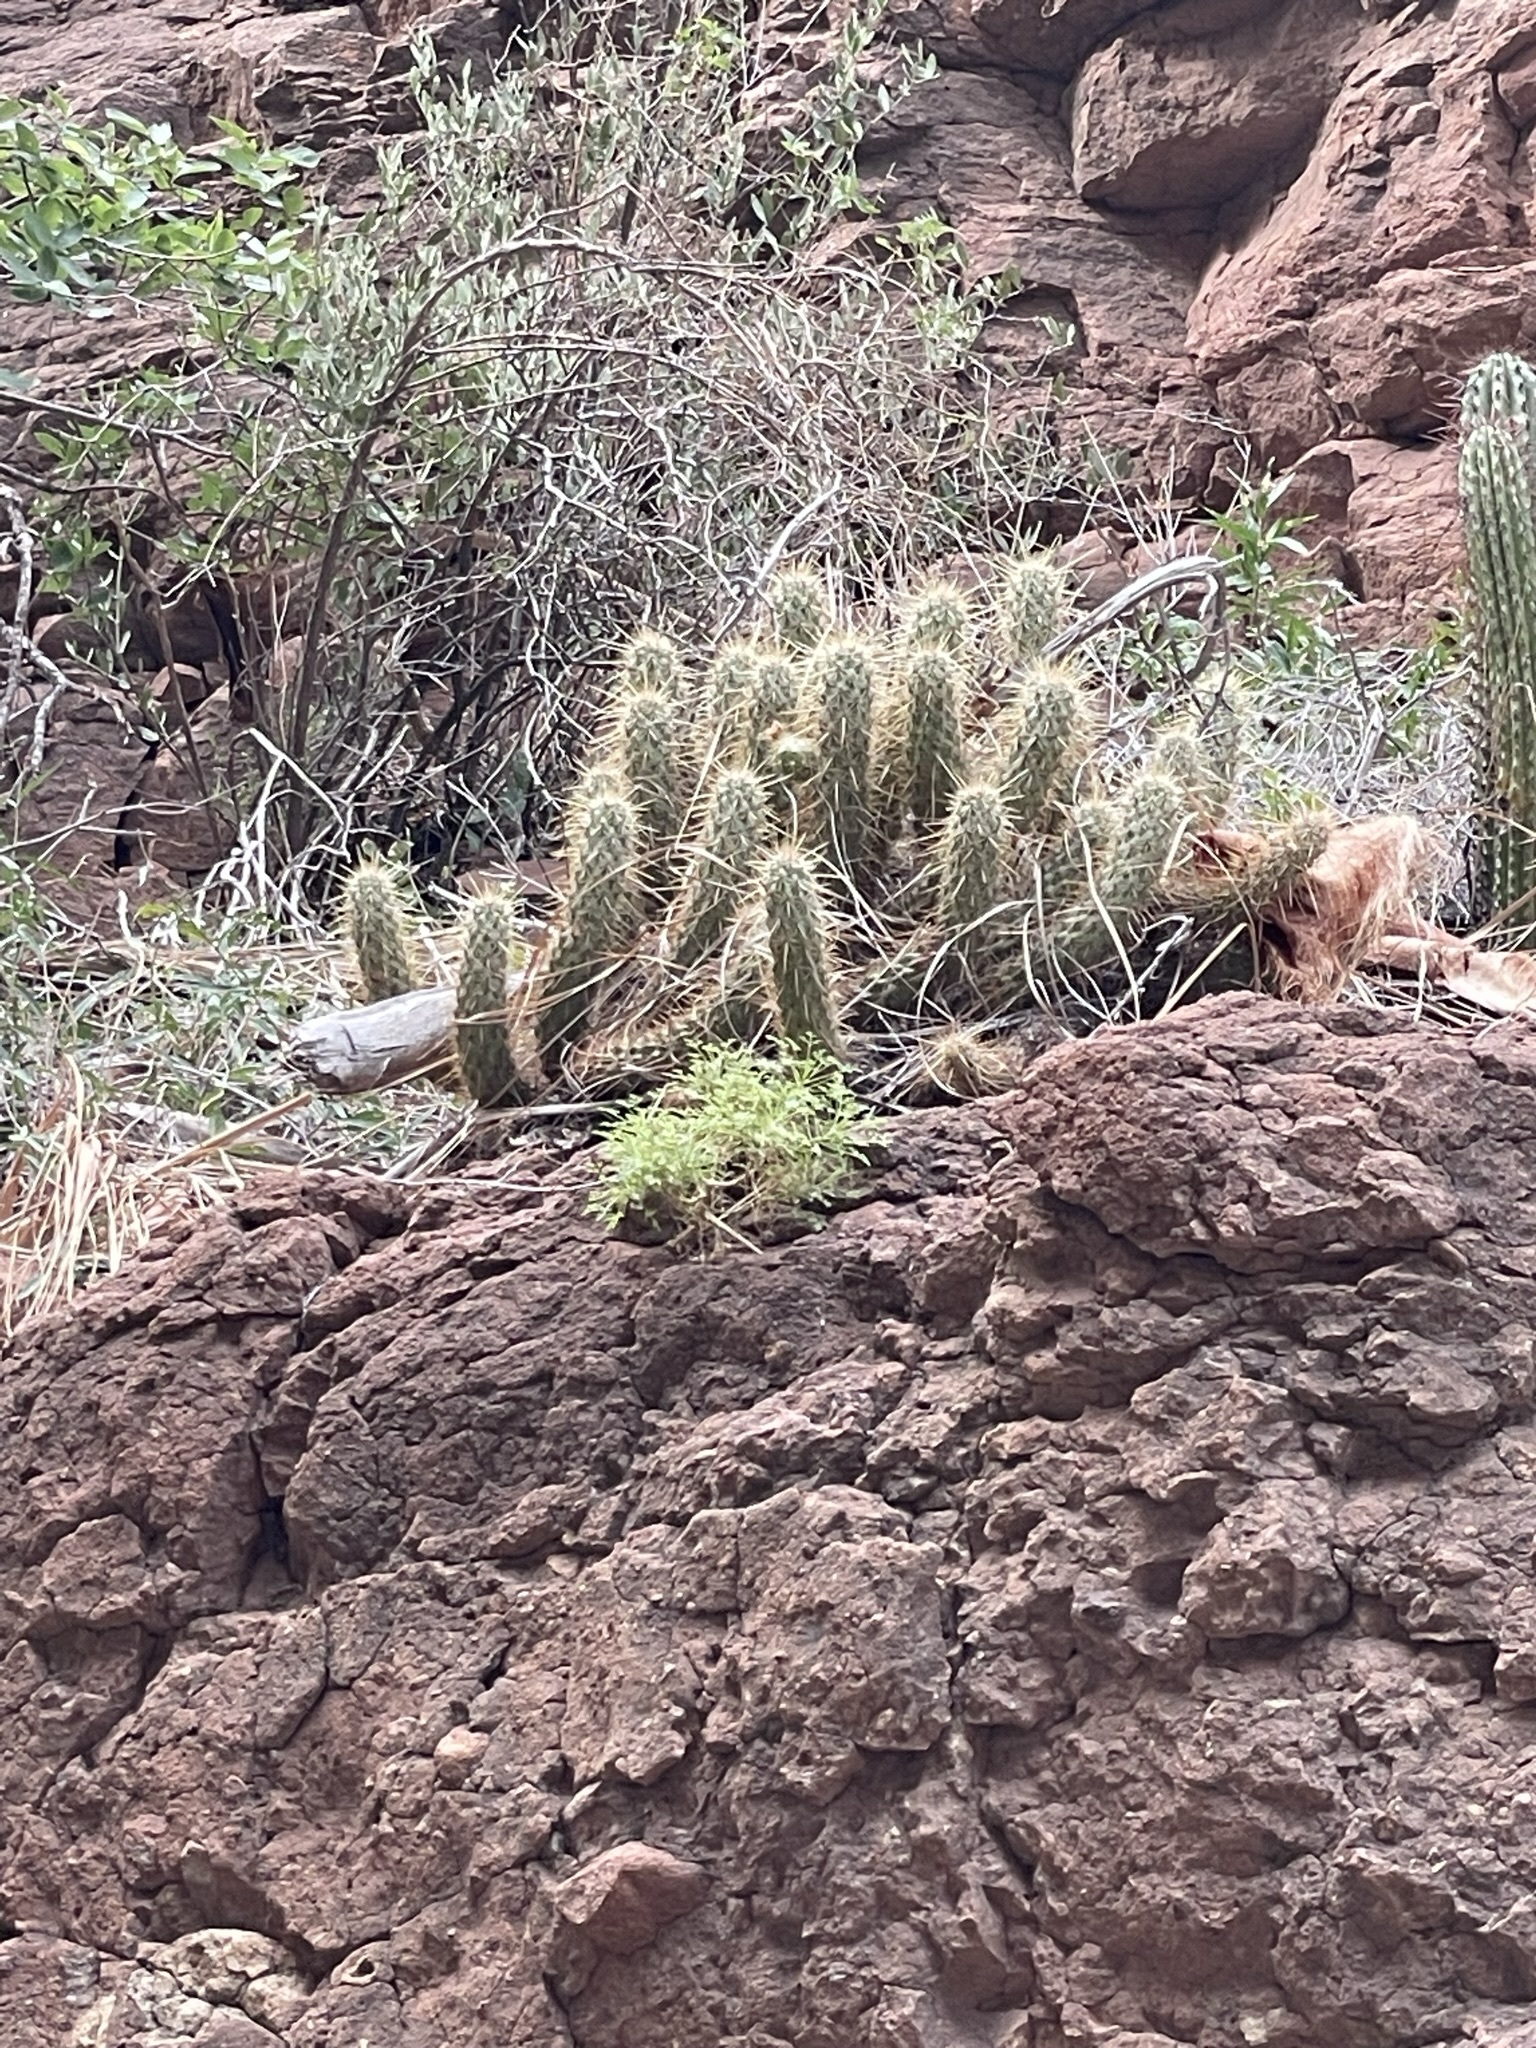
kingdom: Plantae
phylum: Tracheophyta
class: Magnoliopsida
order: Caryophyllales
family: Cactaceae
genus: Echinocereus
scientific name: Echinocereus brandegeei
